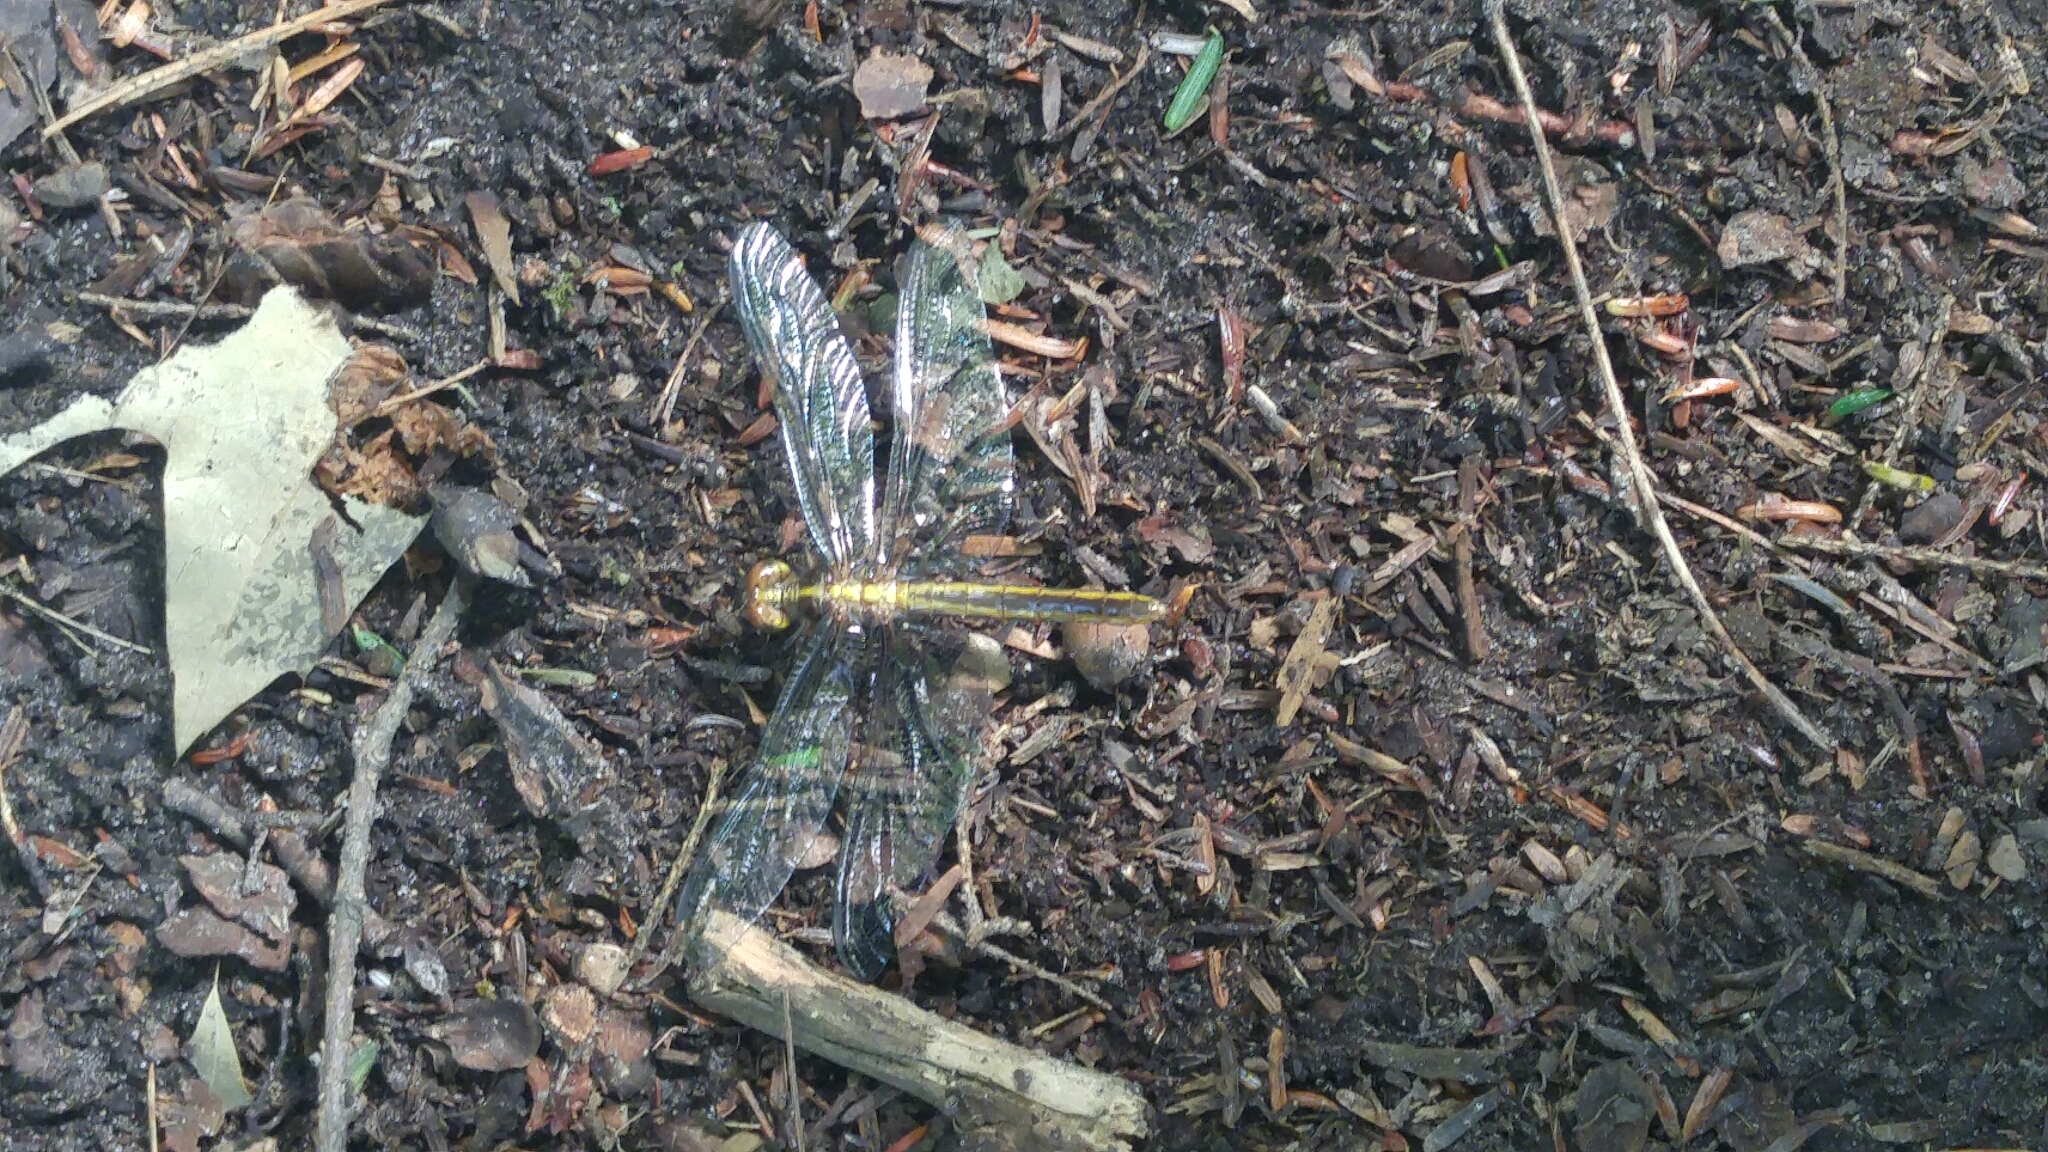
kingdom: Animalia
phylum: Arthropoda
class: Insecta
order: Odonata
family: Libellulidae
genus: Libellula
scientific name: Libellula luctuosa
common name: Widow skimmer
